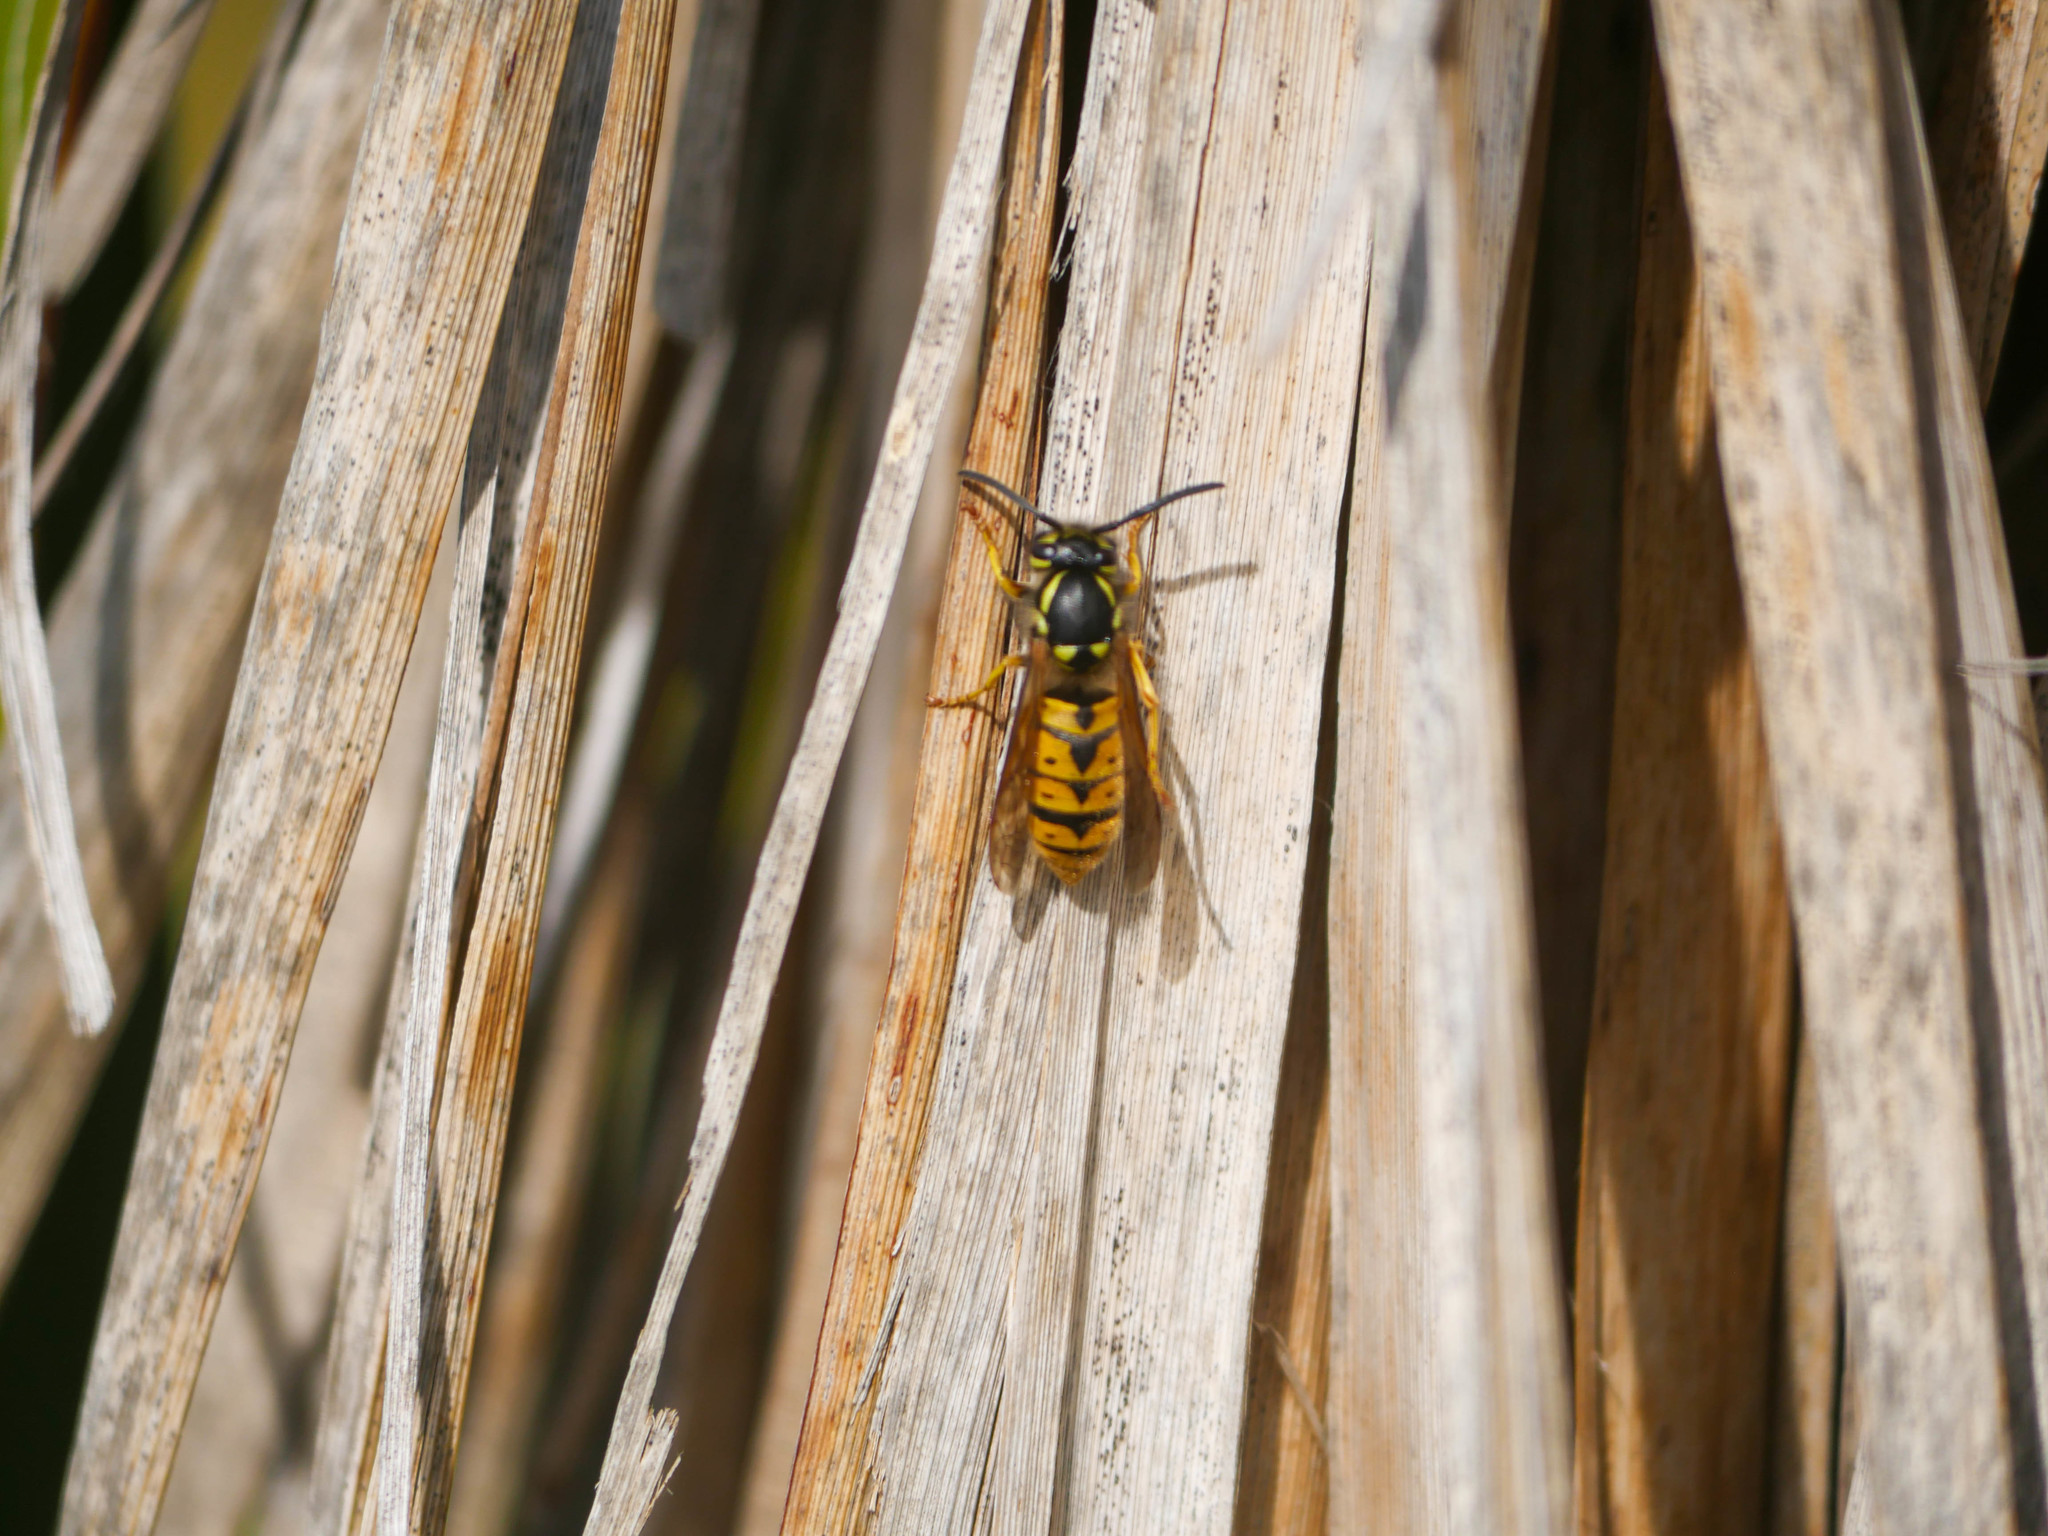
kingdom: Animalia
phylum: Arthropoda
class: Insecta
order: Hymenoptera
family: Vespidae
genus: Vespula
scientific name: Vespula germanica
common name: German wasp
